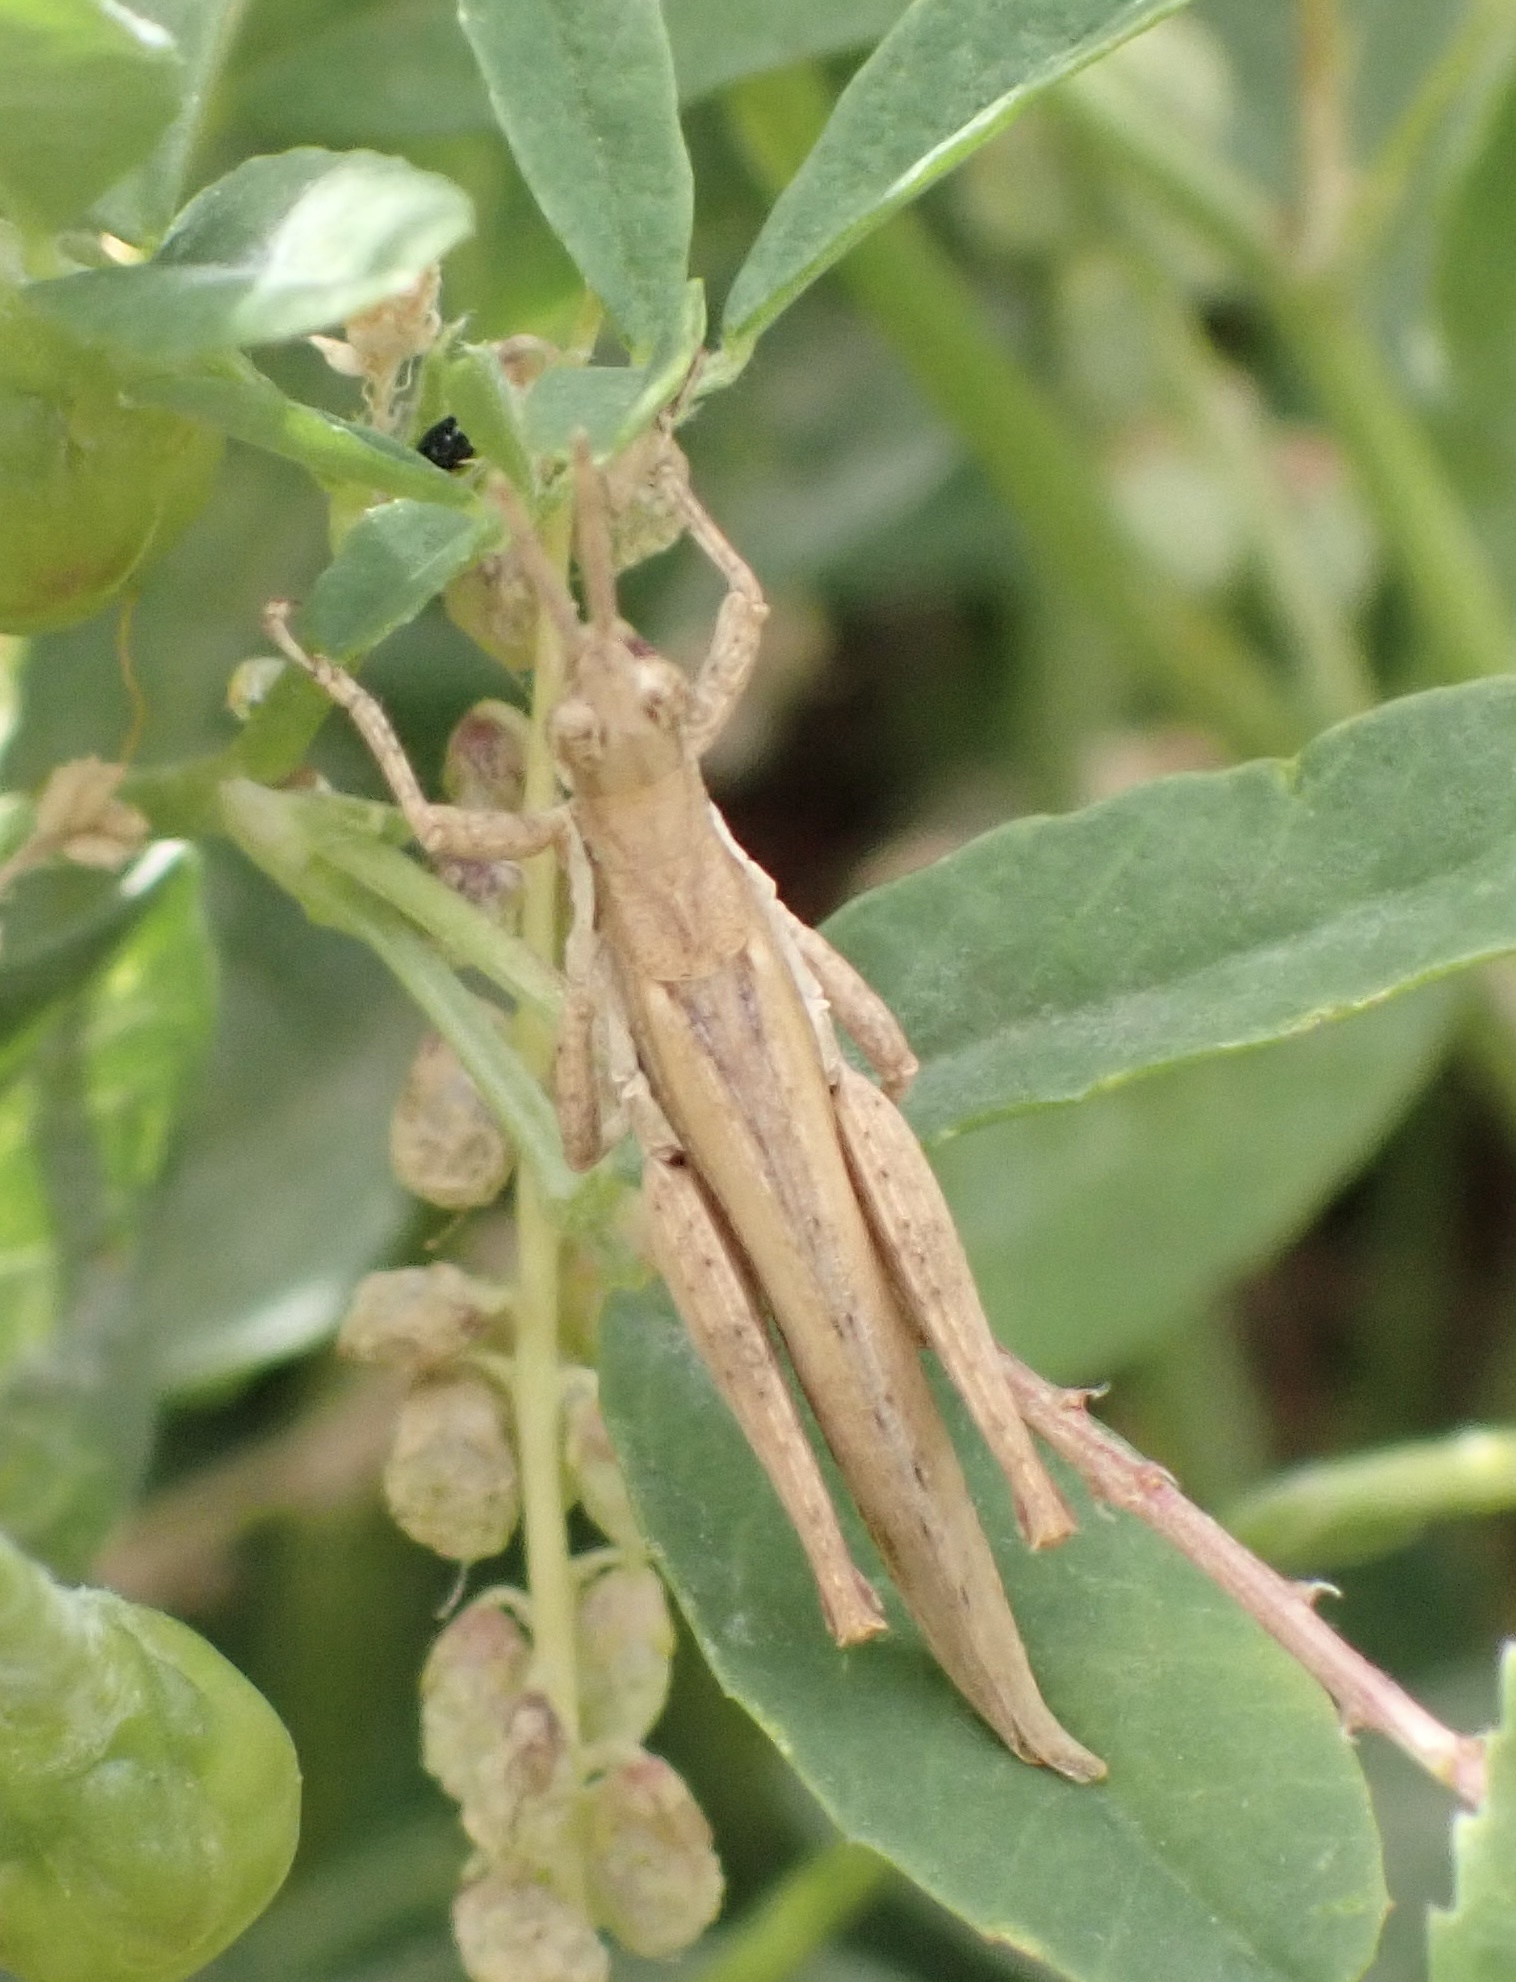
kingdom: Animalia
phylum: Arthropoda
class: Insecta
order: Orthoptera
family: Pyrgomorphidae
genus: Pyrgomorpha
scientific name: Pyrgomorpha conica
